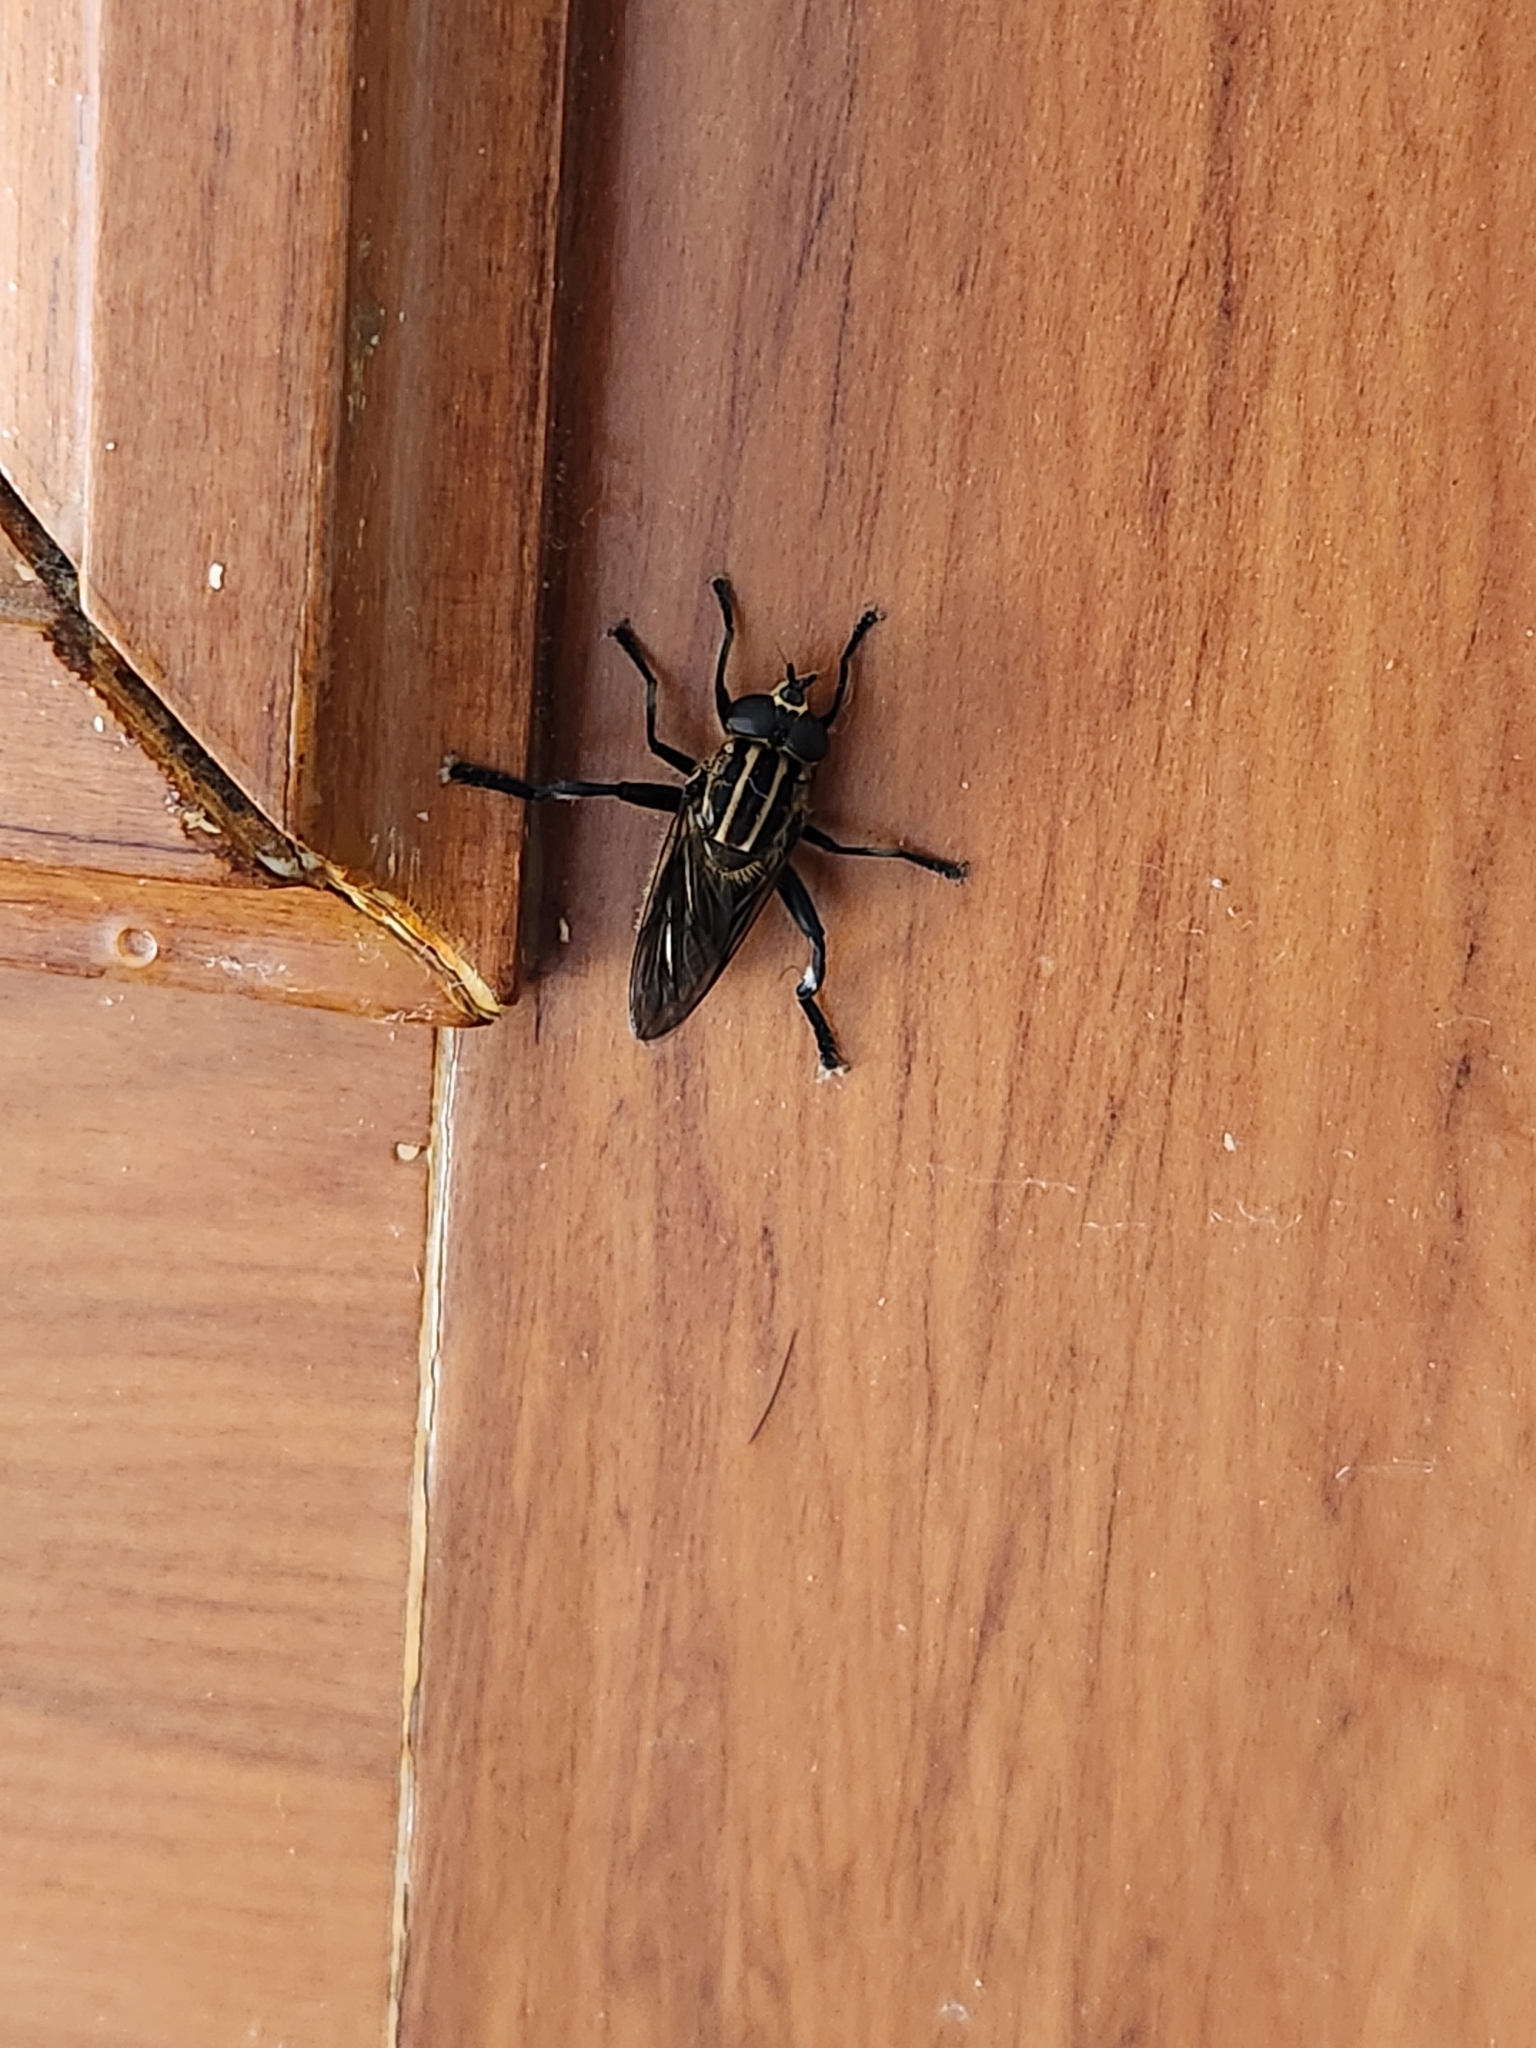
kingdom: Animalia
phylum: Arthropoda
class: Insecta
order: Diptera
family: Syrphidae
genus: Orthoprosopa
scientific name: Orthoprosopa bilineata
